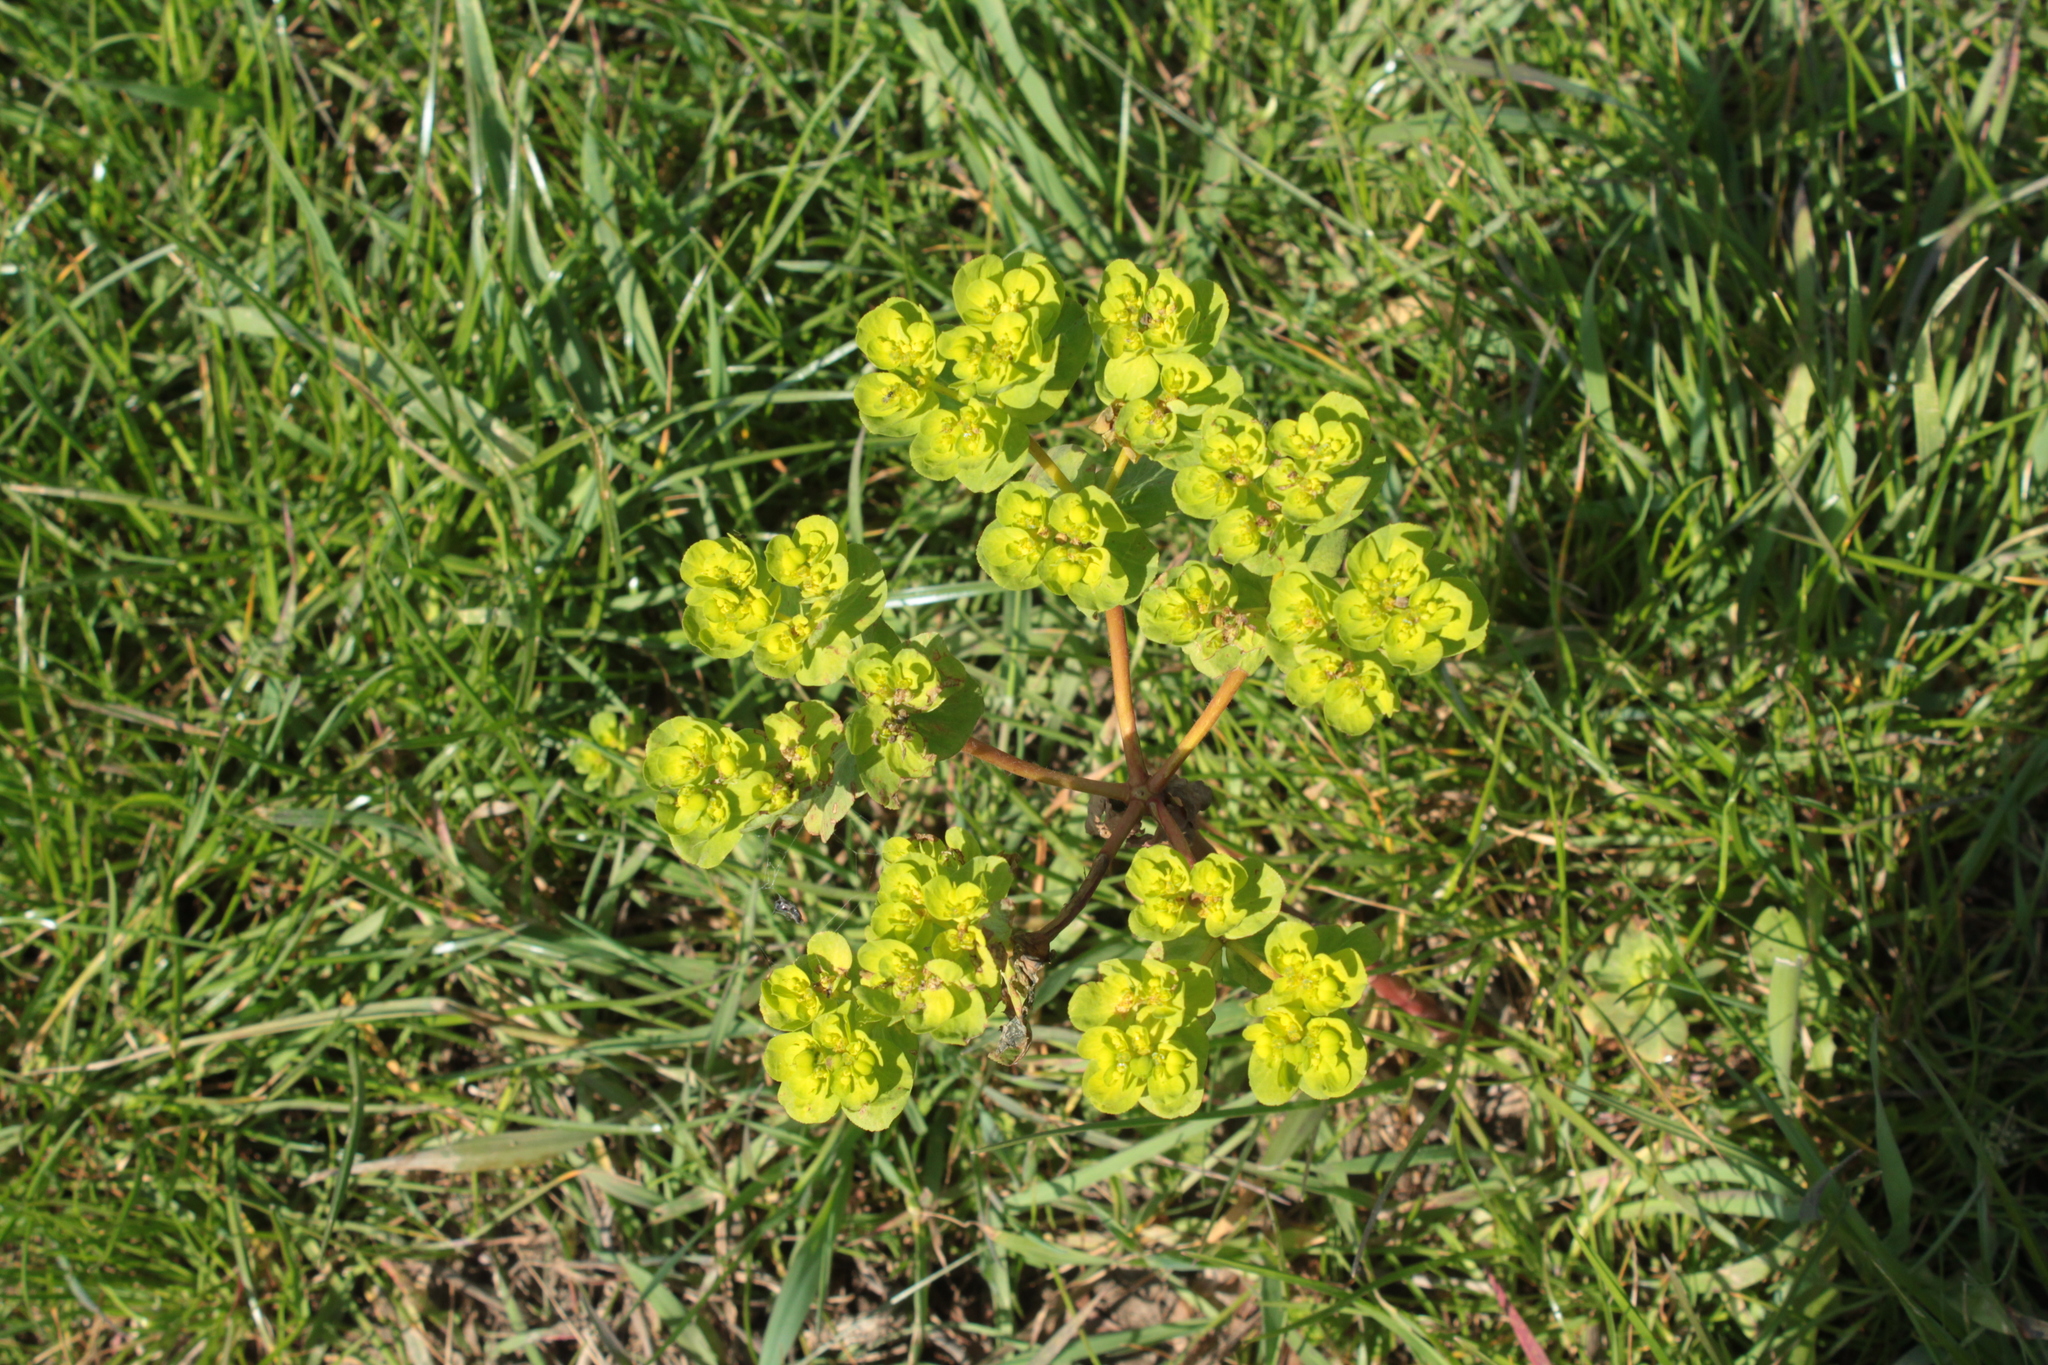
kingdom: Plantae
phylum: Tracheophyta
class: Magnoliopsida
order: Malpighiales
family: Euphorbiaceae
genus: Euphorbia
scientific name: Euphorbia helioscopia
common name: Sun spurge
